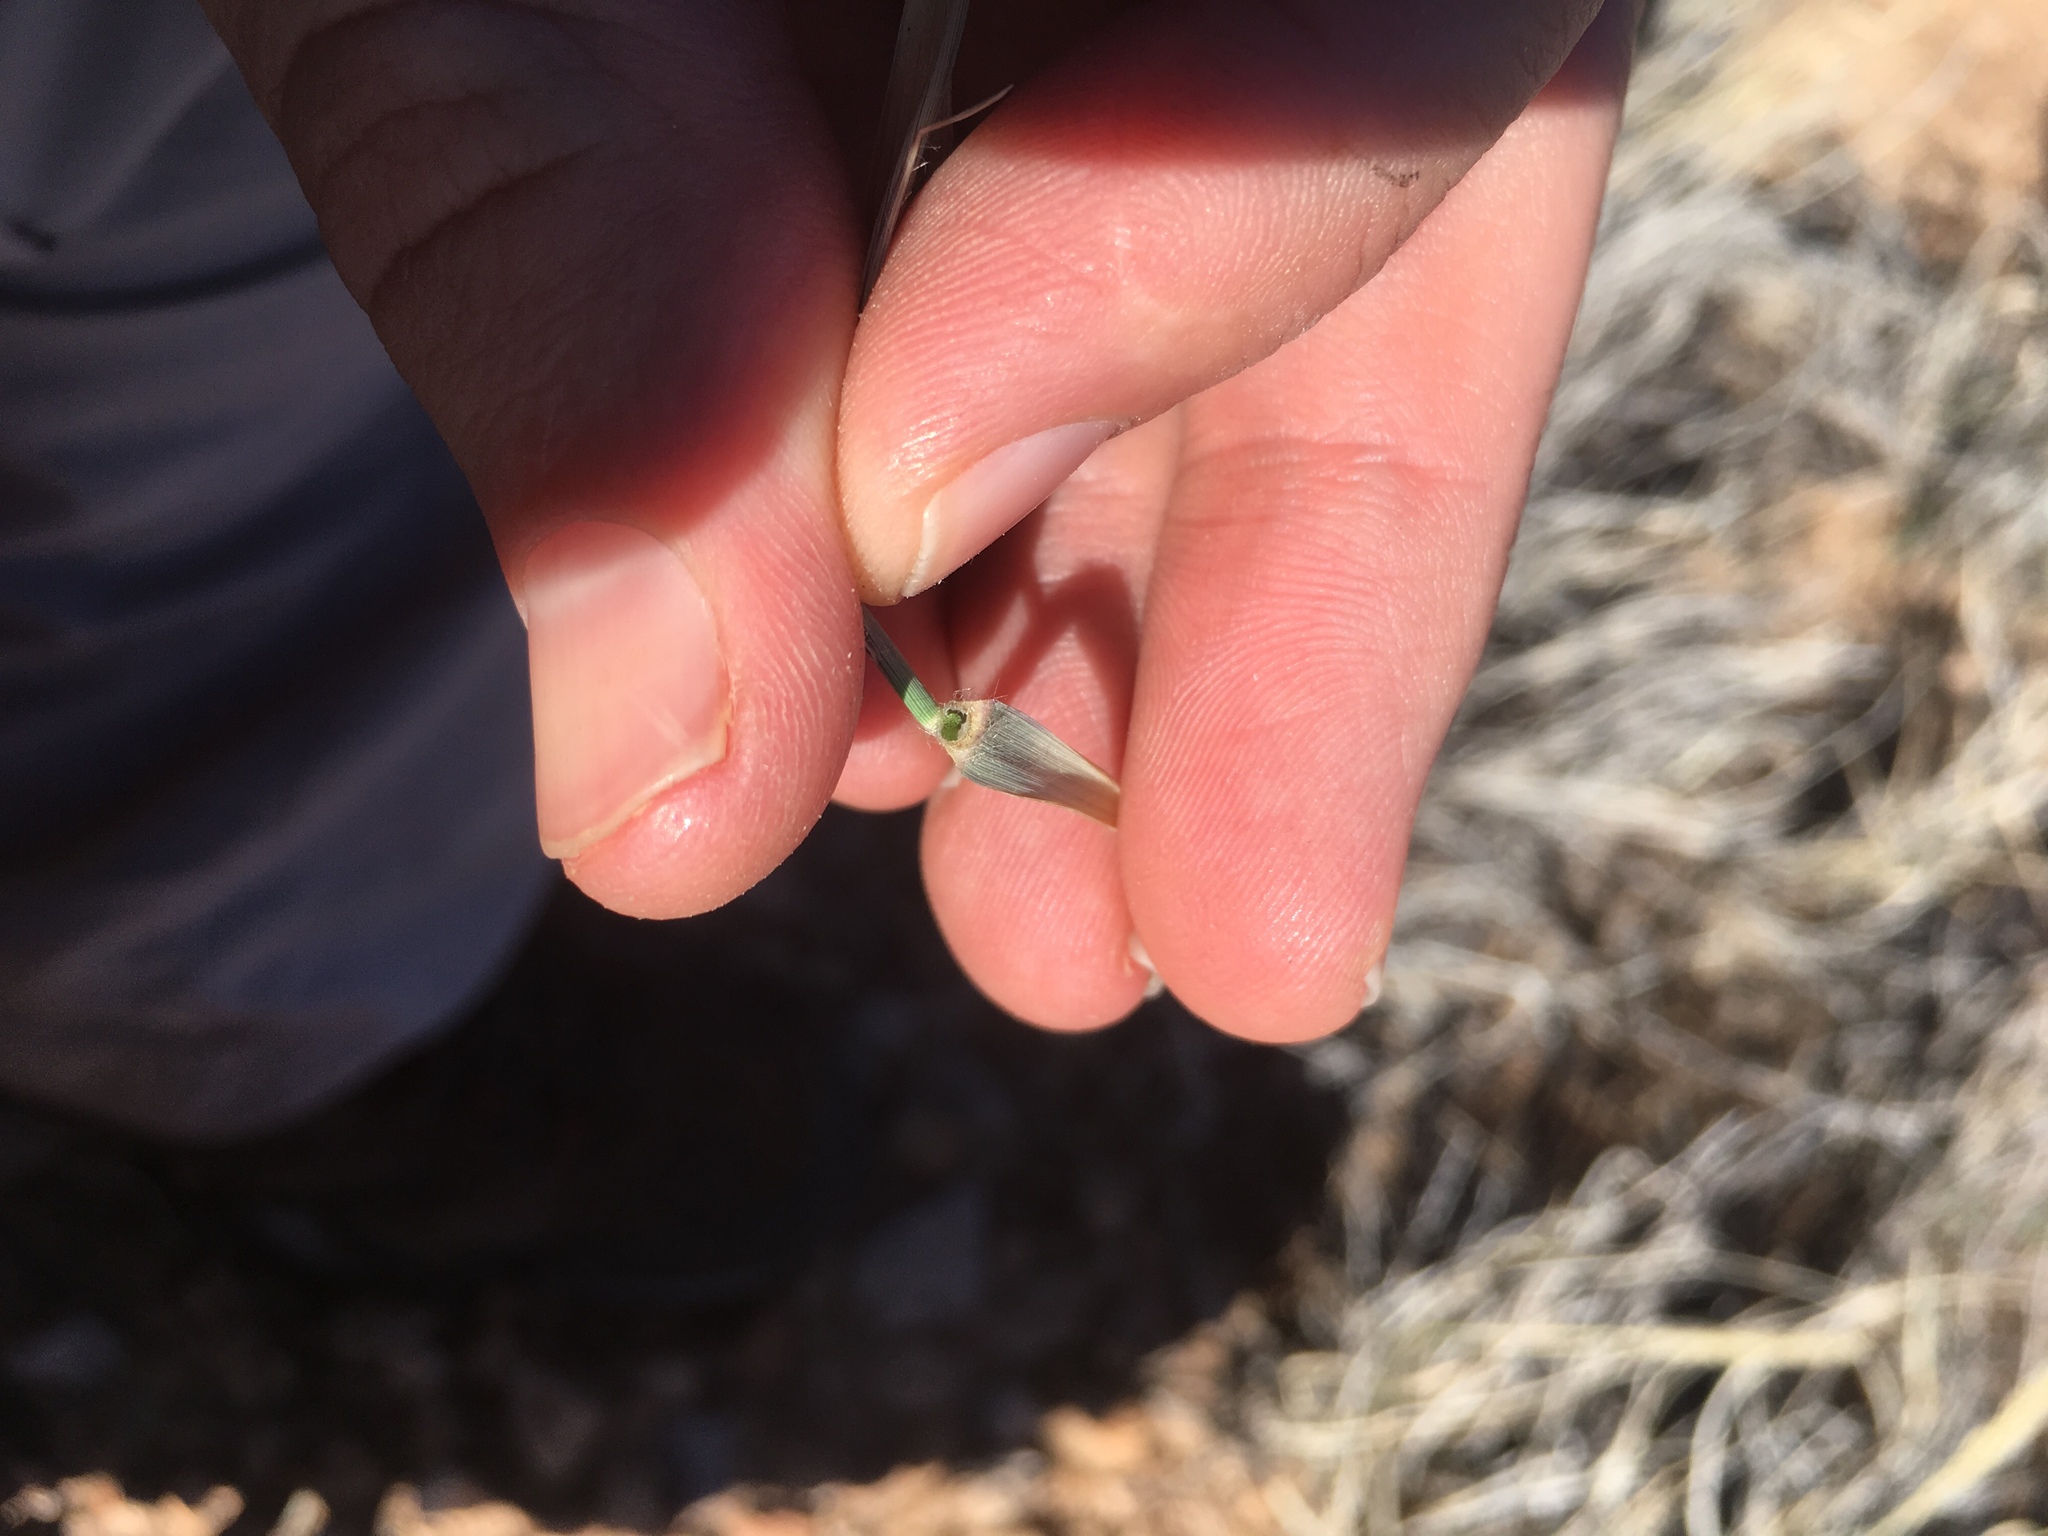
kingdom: Plantae
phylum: Tracheophyta
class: Liliopsida
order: Poales
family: Poaceae
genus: Hilaria
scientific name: Hilaria mutica
